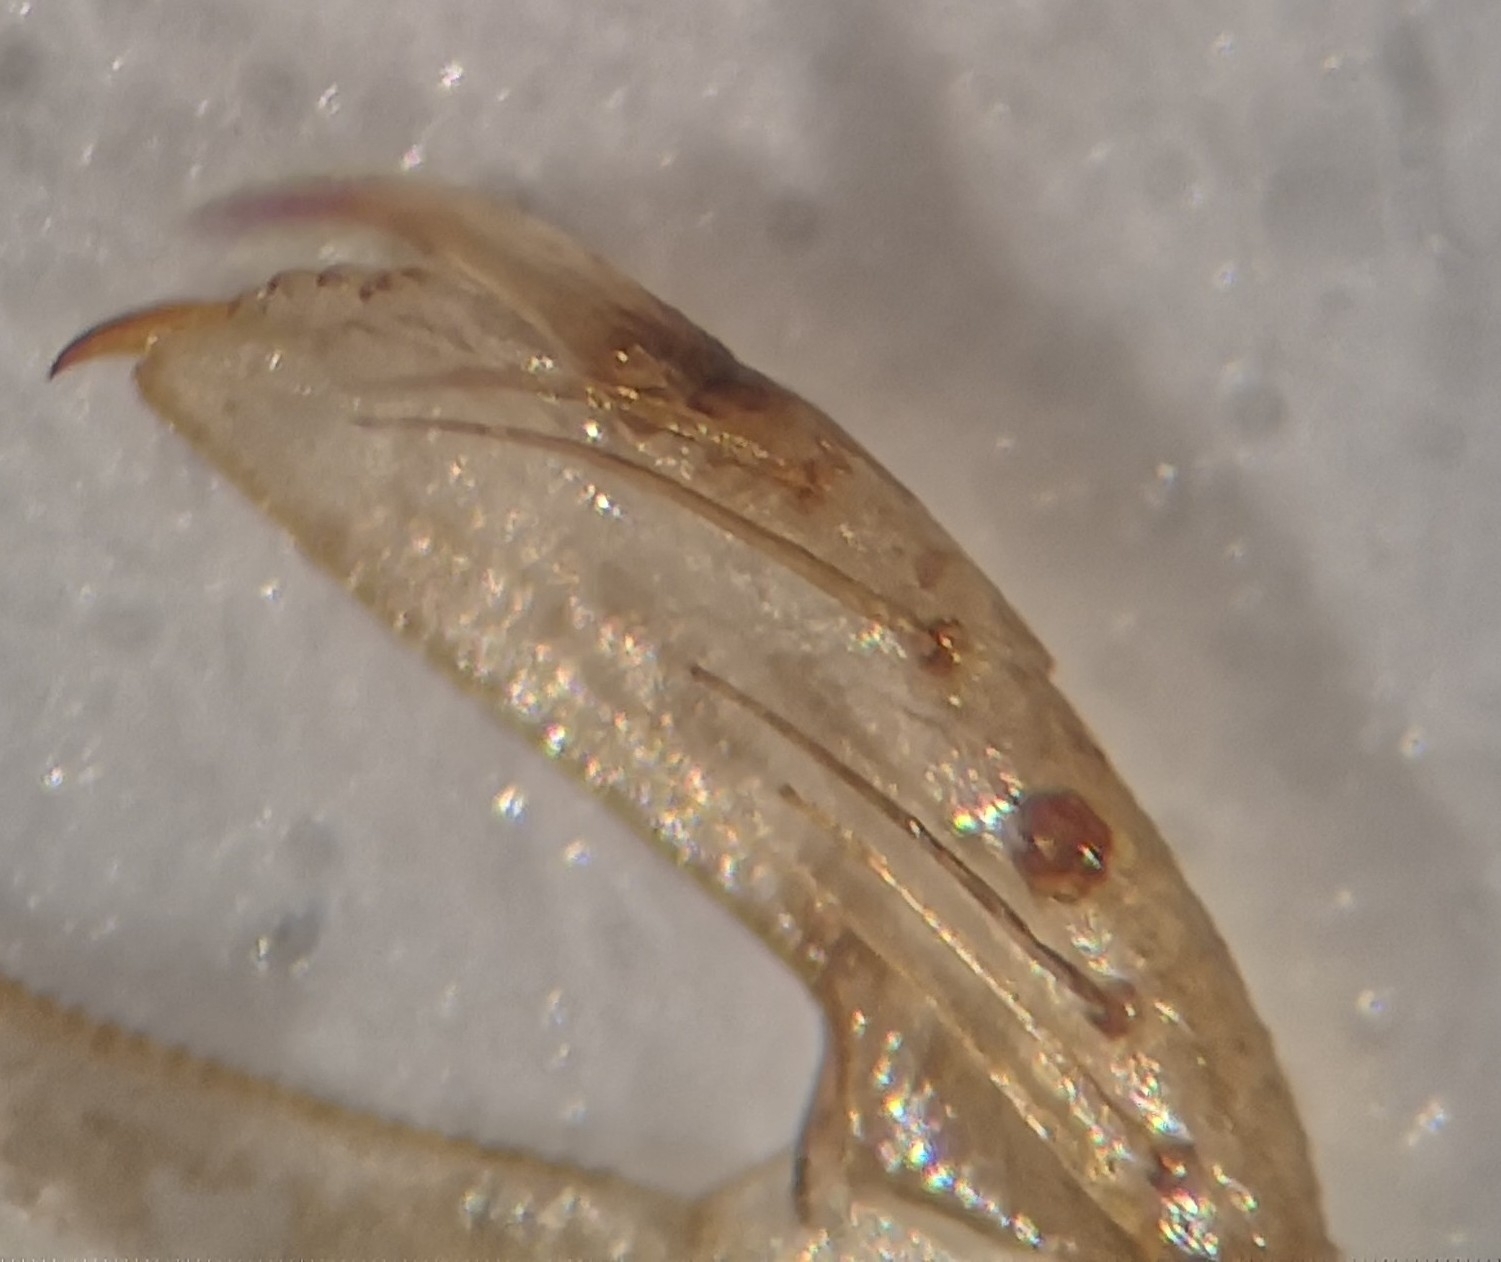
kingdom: Animalia
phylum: Arthropoda
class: Insecta
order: Odonata
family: Coenagrionidae
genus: Enallagma
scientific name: Enallagma cyathigerum
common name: Common blue damselfly
